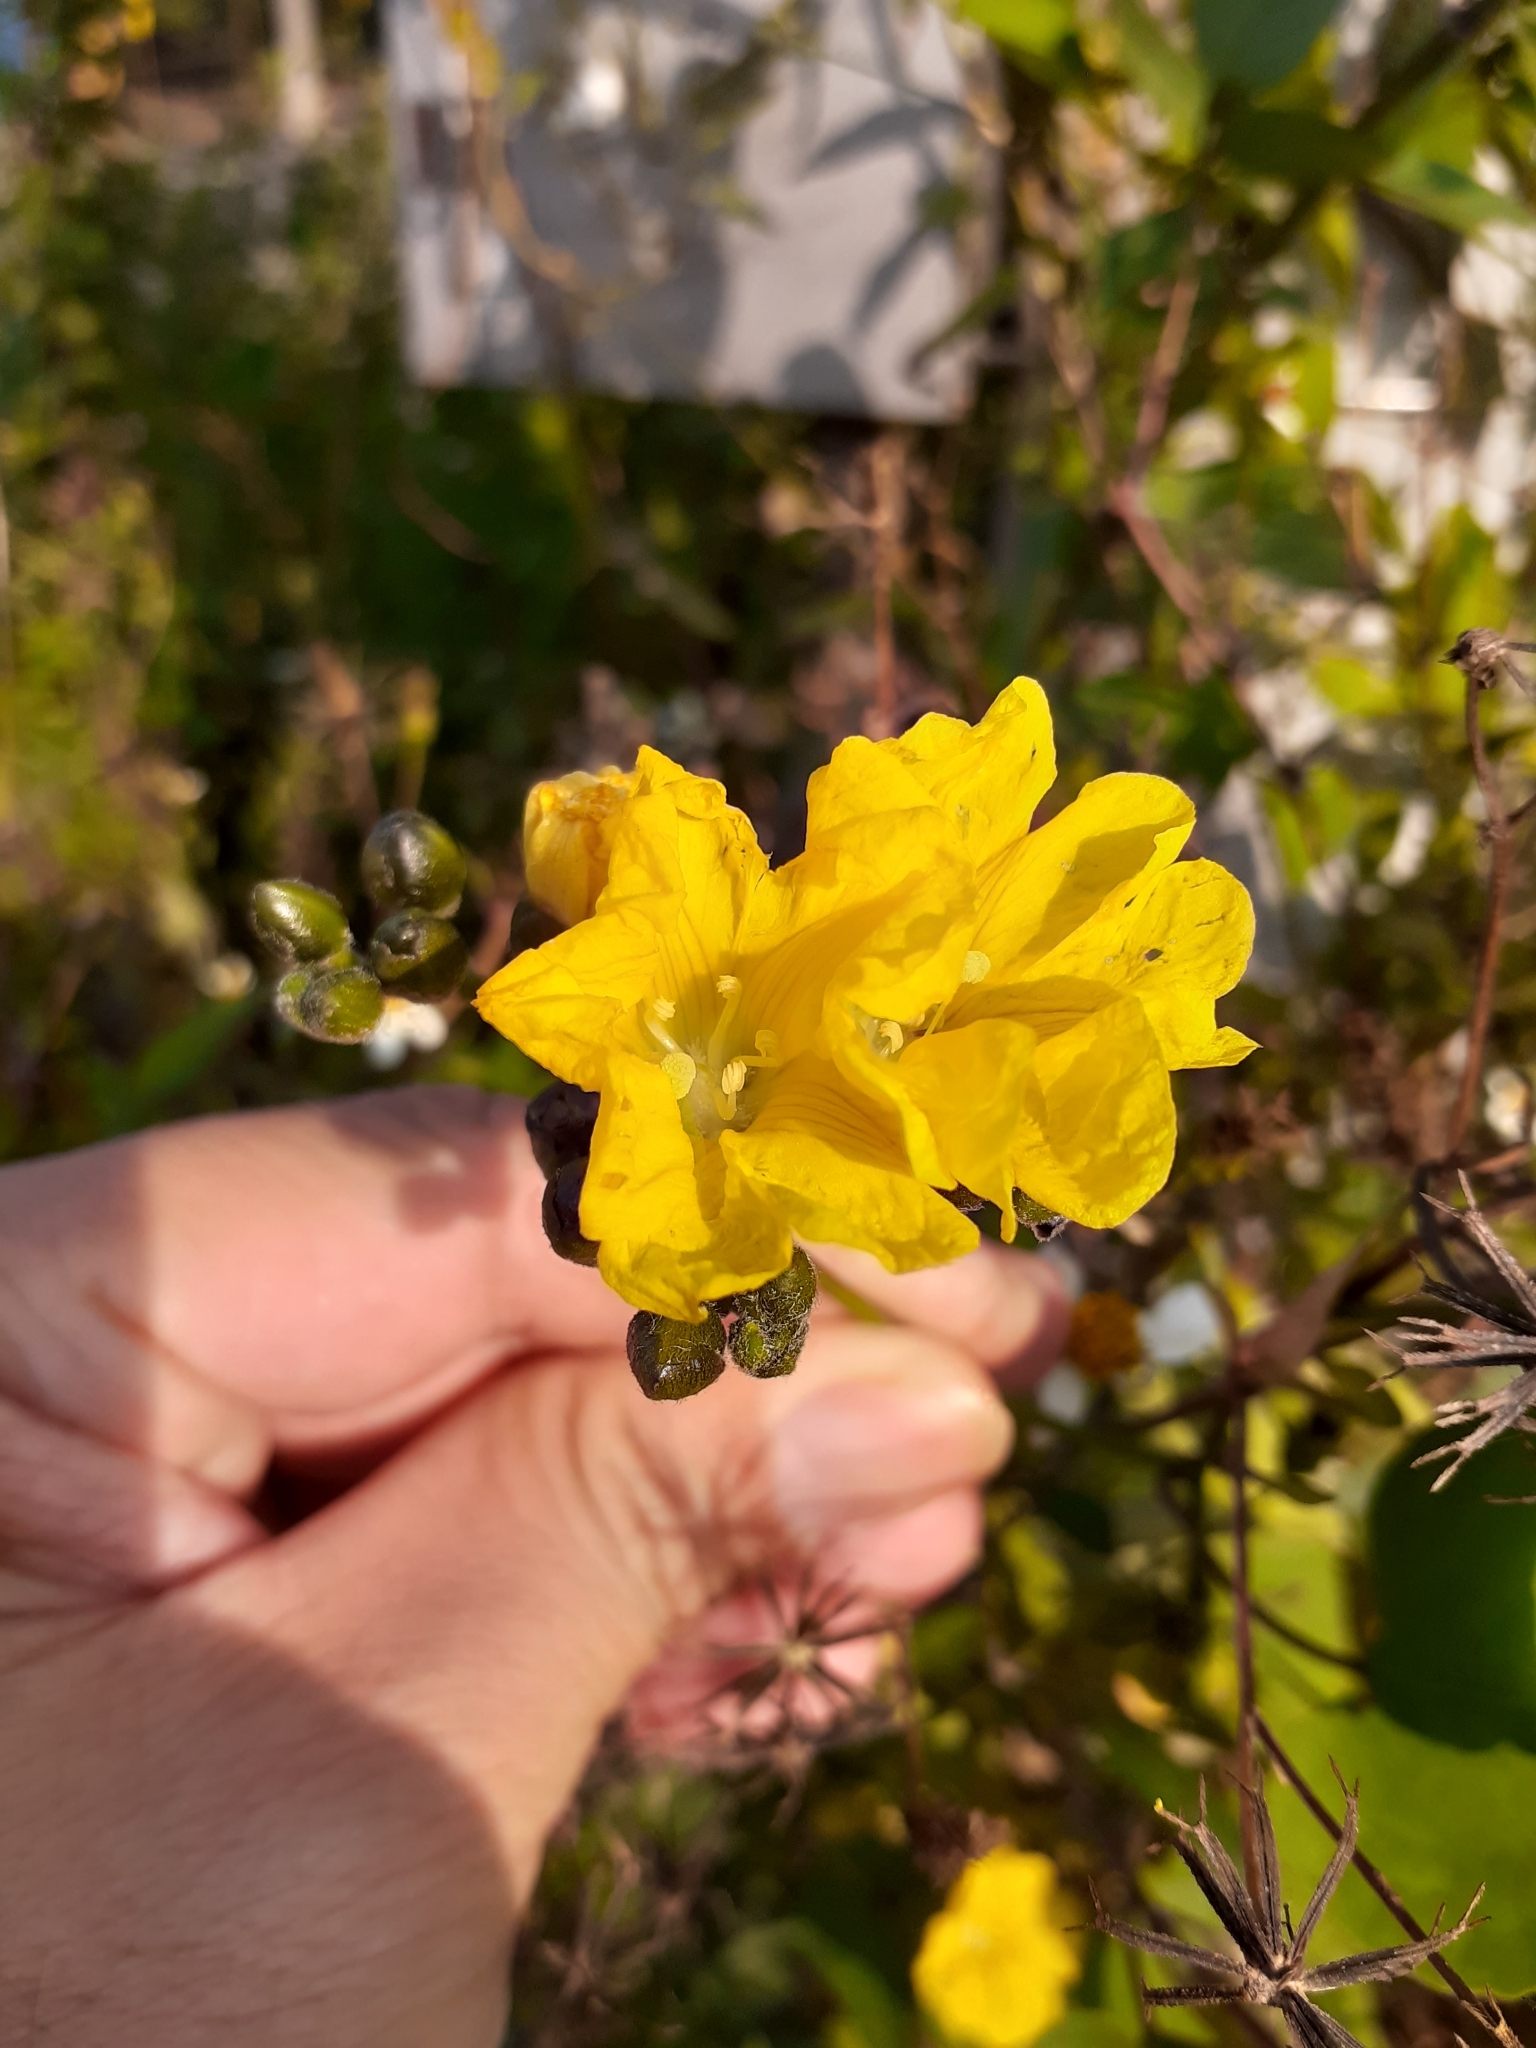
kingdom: Plantae
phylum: Tracheophyta
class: Magnoliopsida
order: Solanales
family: Convolvulaceae
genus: Merremia
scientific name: Merremia gemella
